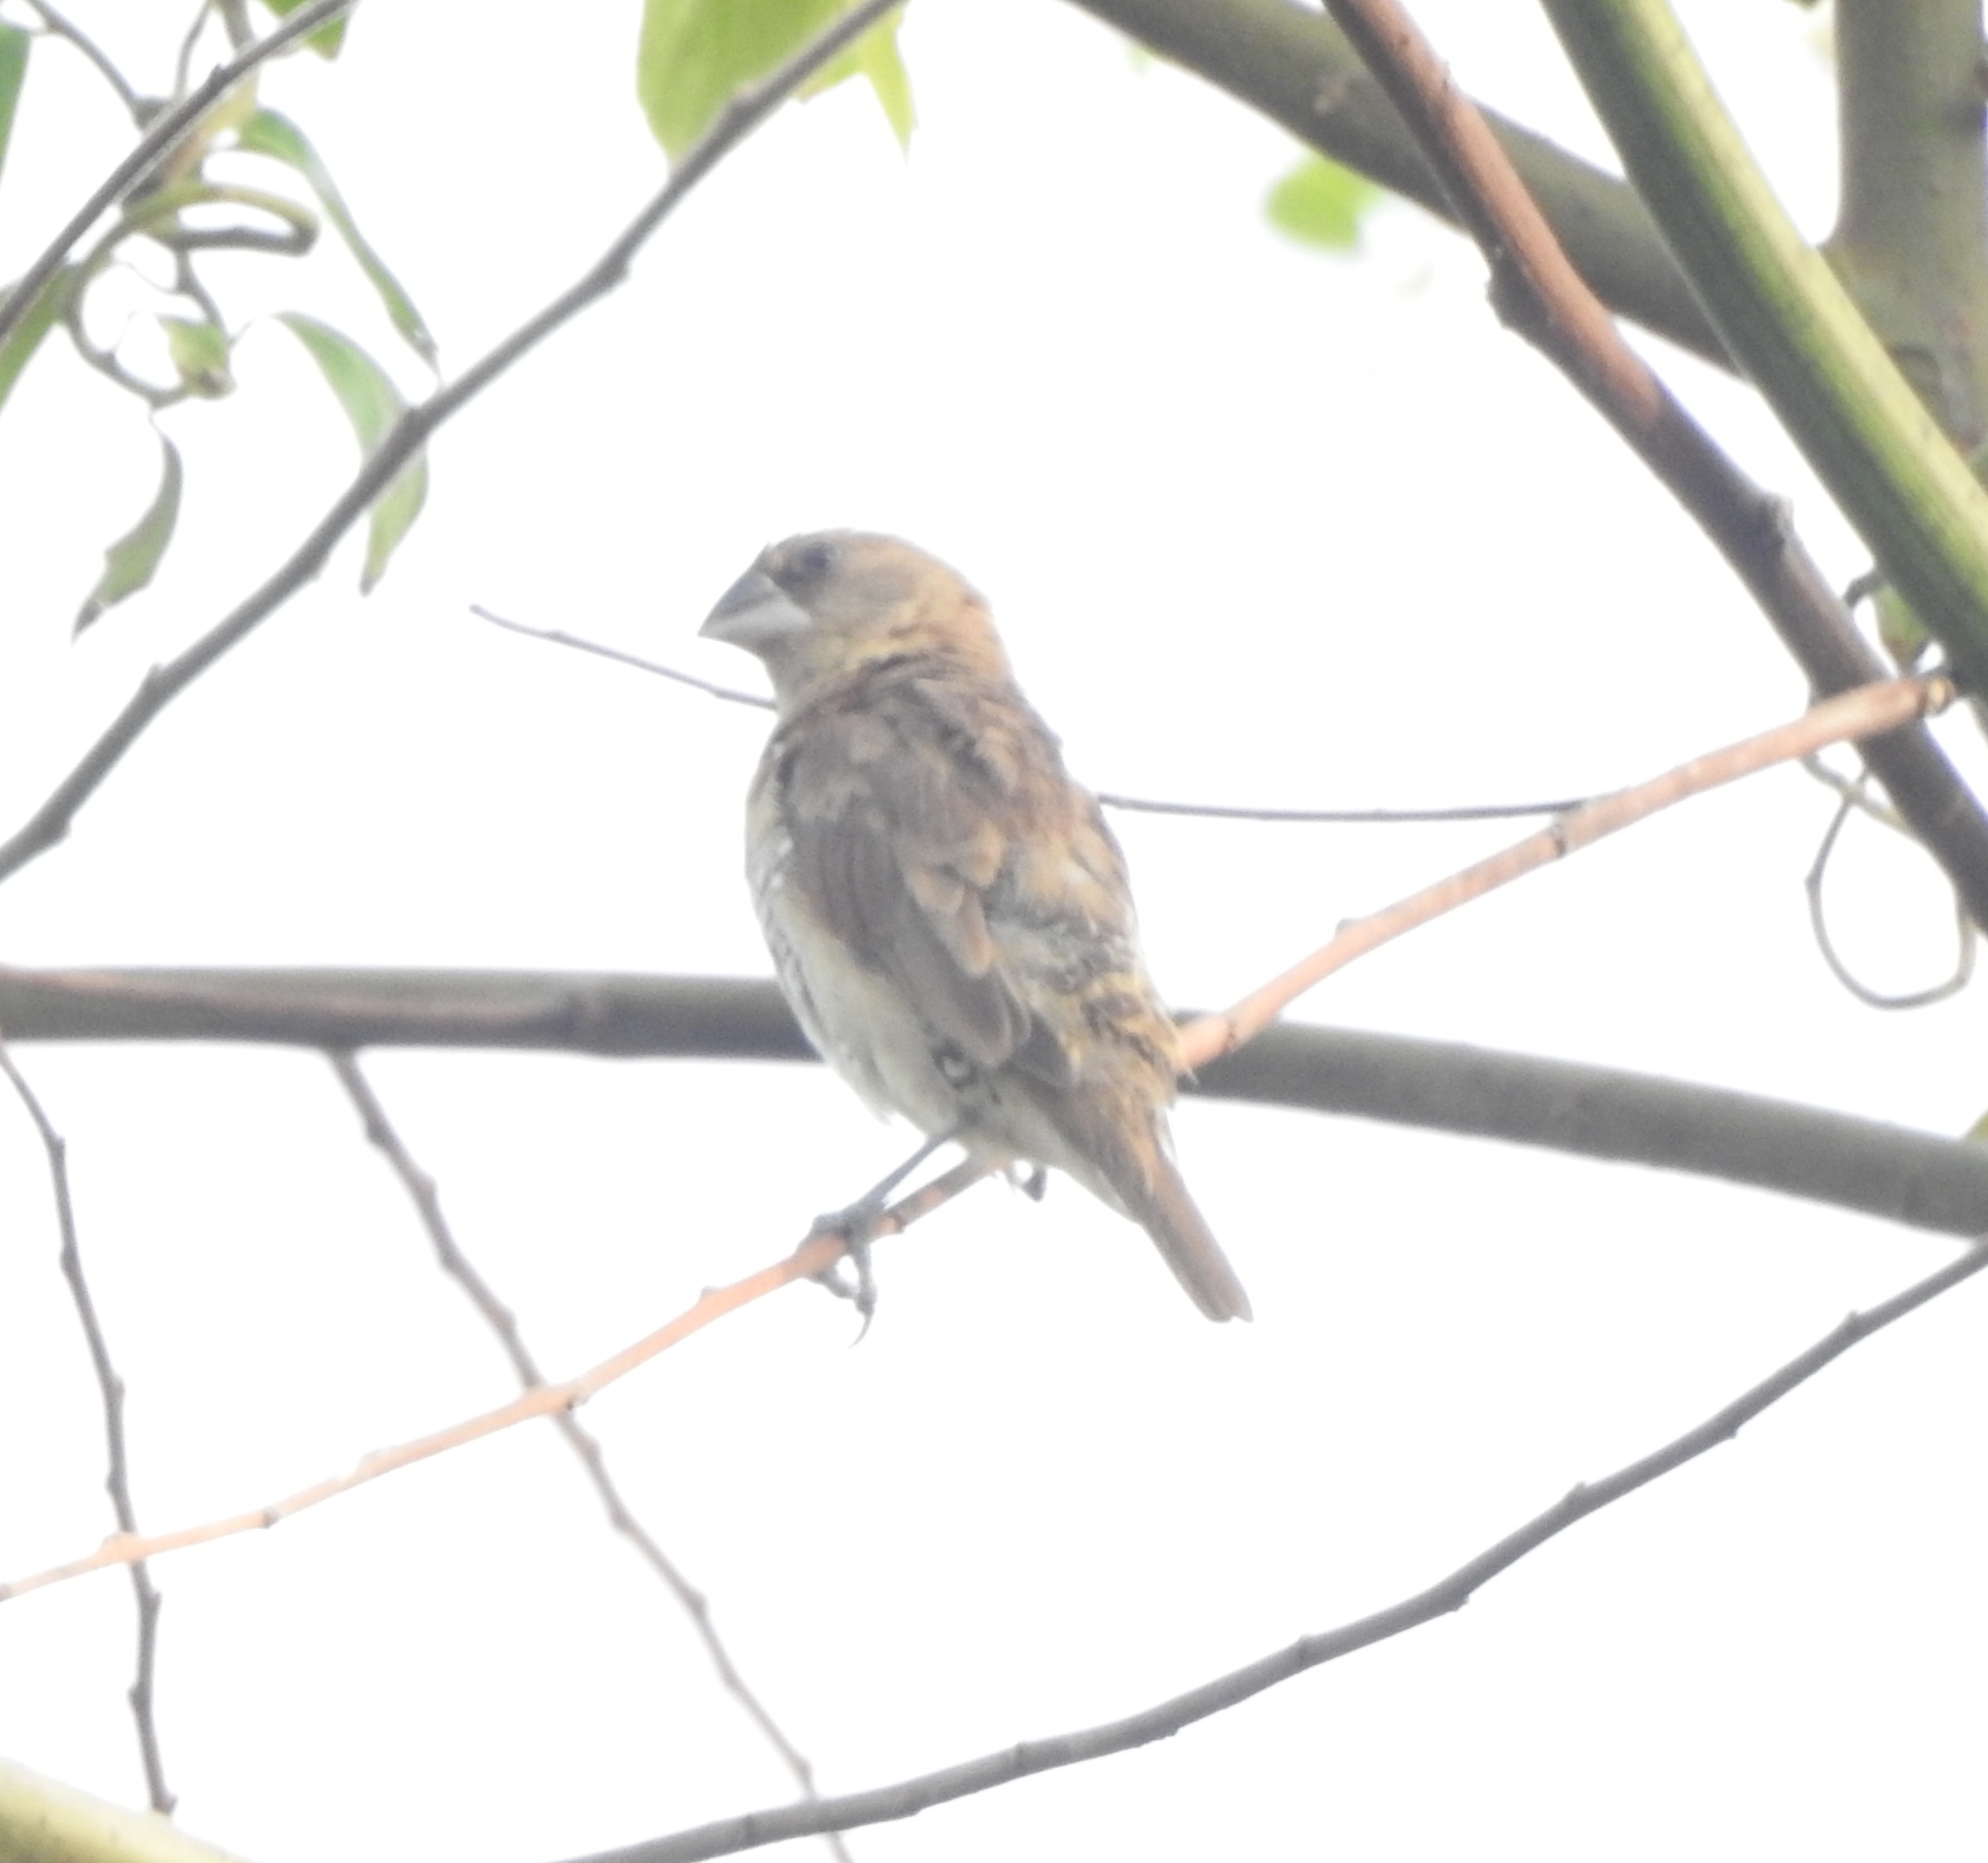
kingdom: Animalia
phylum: Chordata
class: Aves
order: Passeriformes
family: Estrildidae
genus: Lonchura
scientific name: Lonchura punctulata
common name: Scaly-breasted munia
